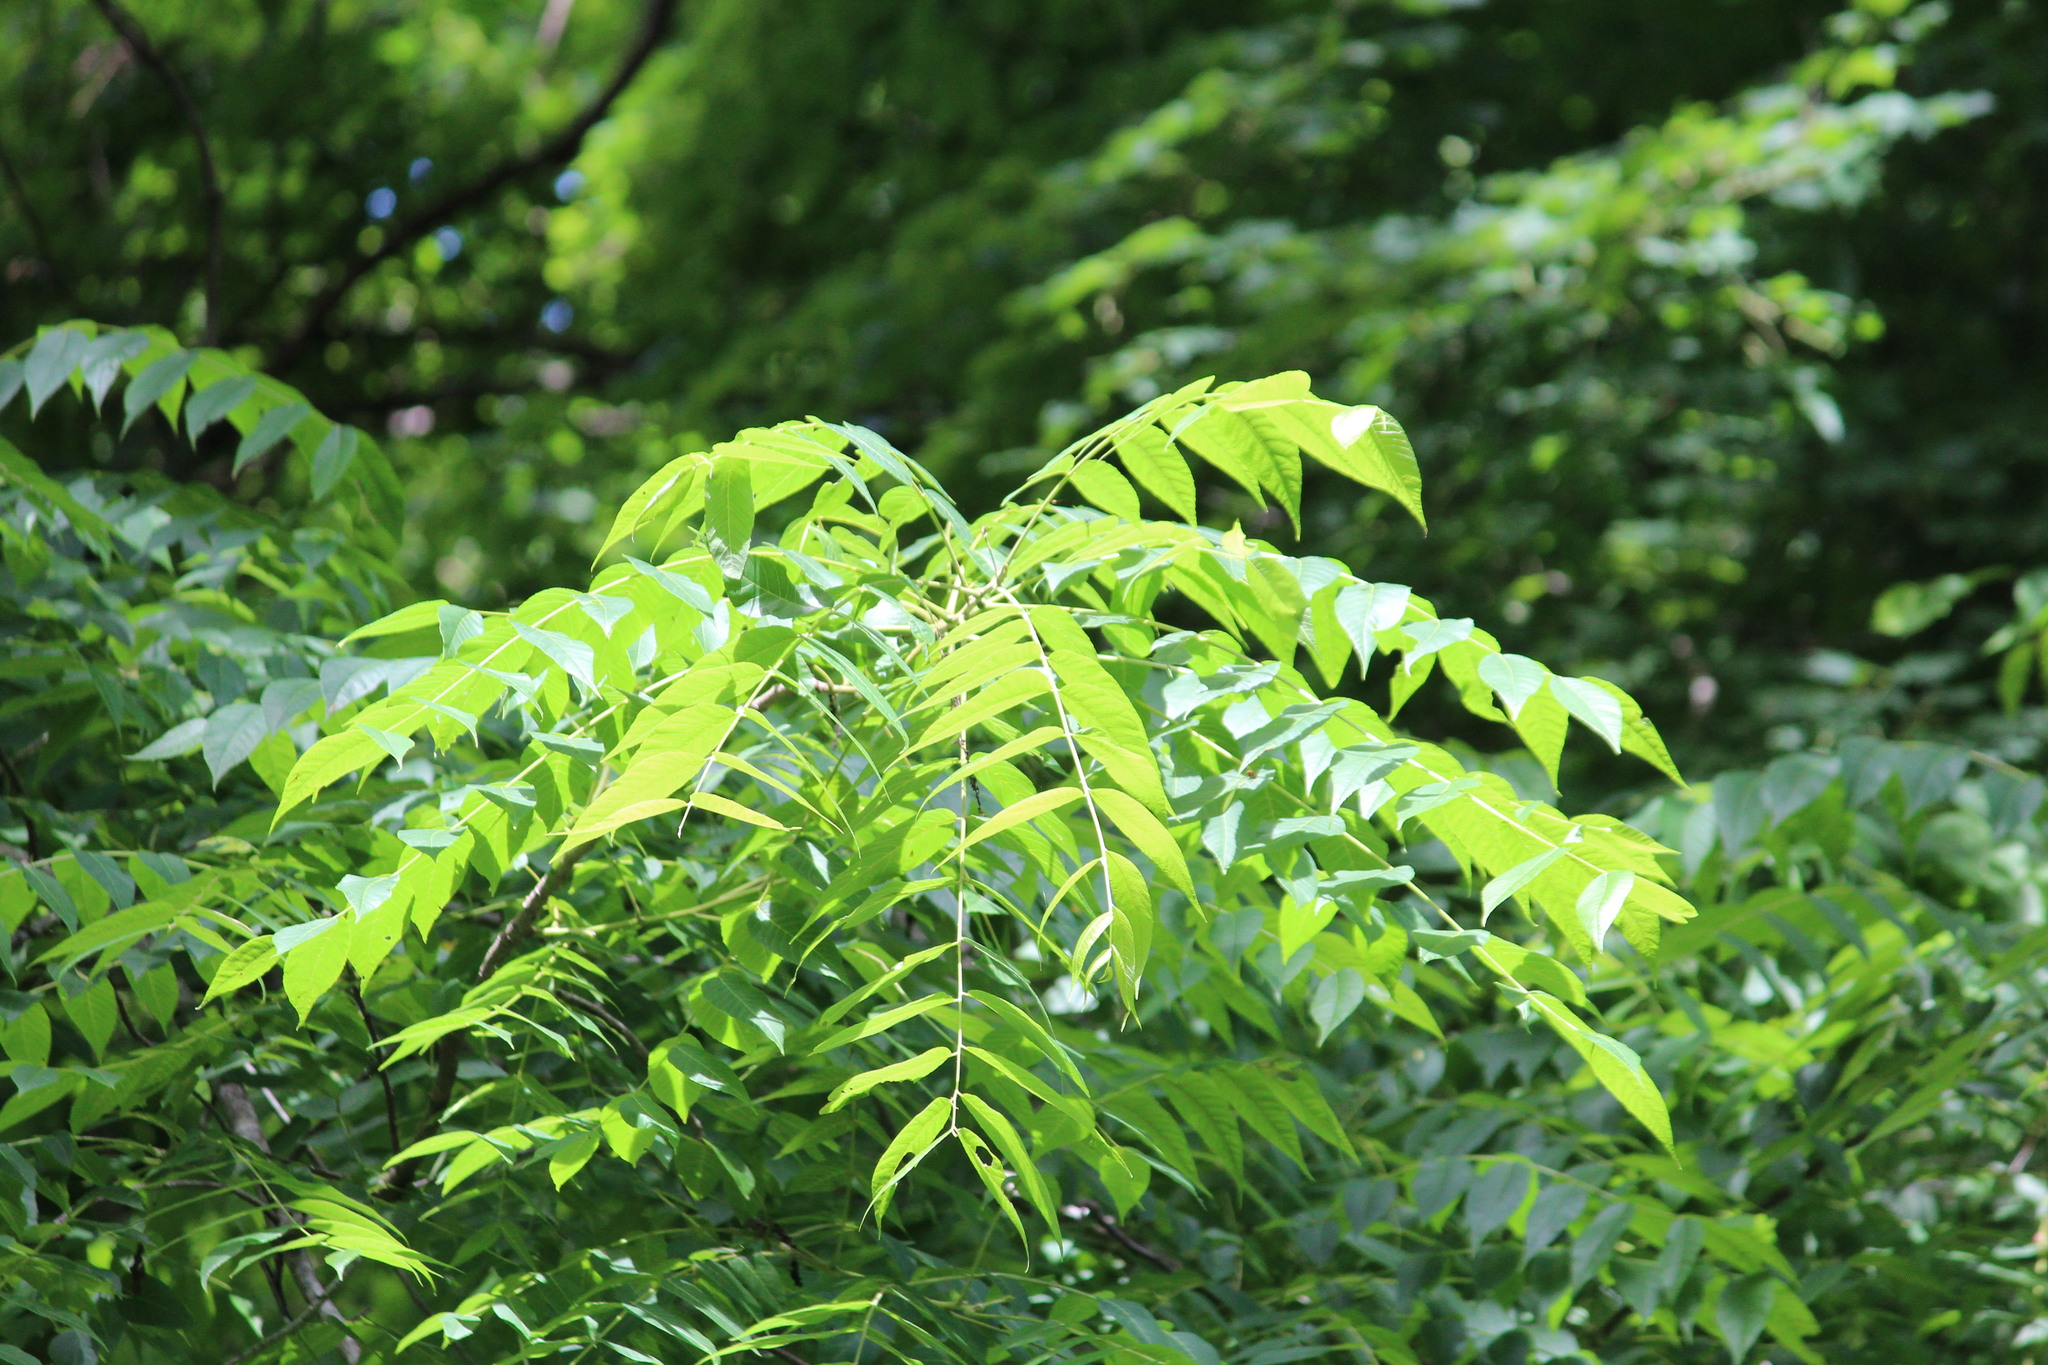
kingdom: Plantae
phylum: Tracheophyta
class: Magnoliopsida
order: Fagales
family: Juglandaceae
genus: Juglans
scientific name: Juglans nigra
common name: Black walnut
